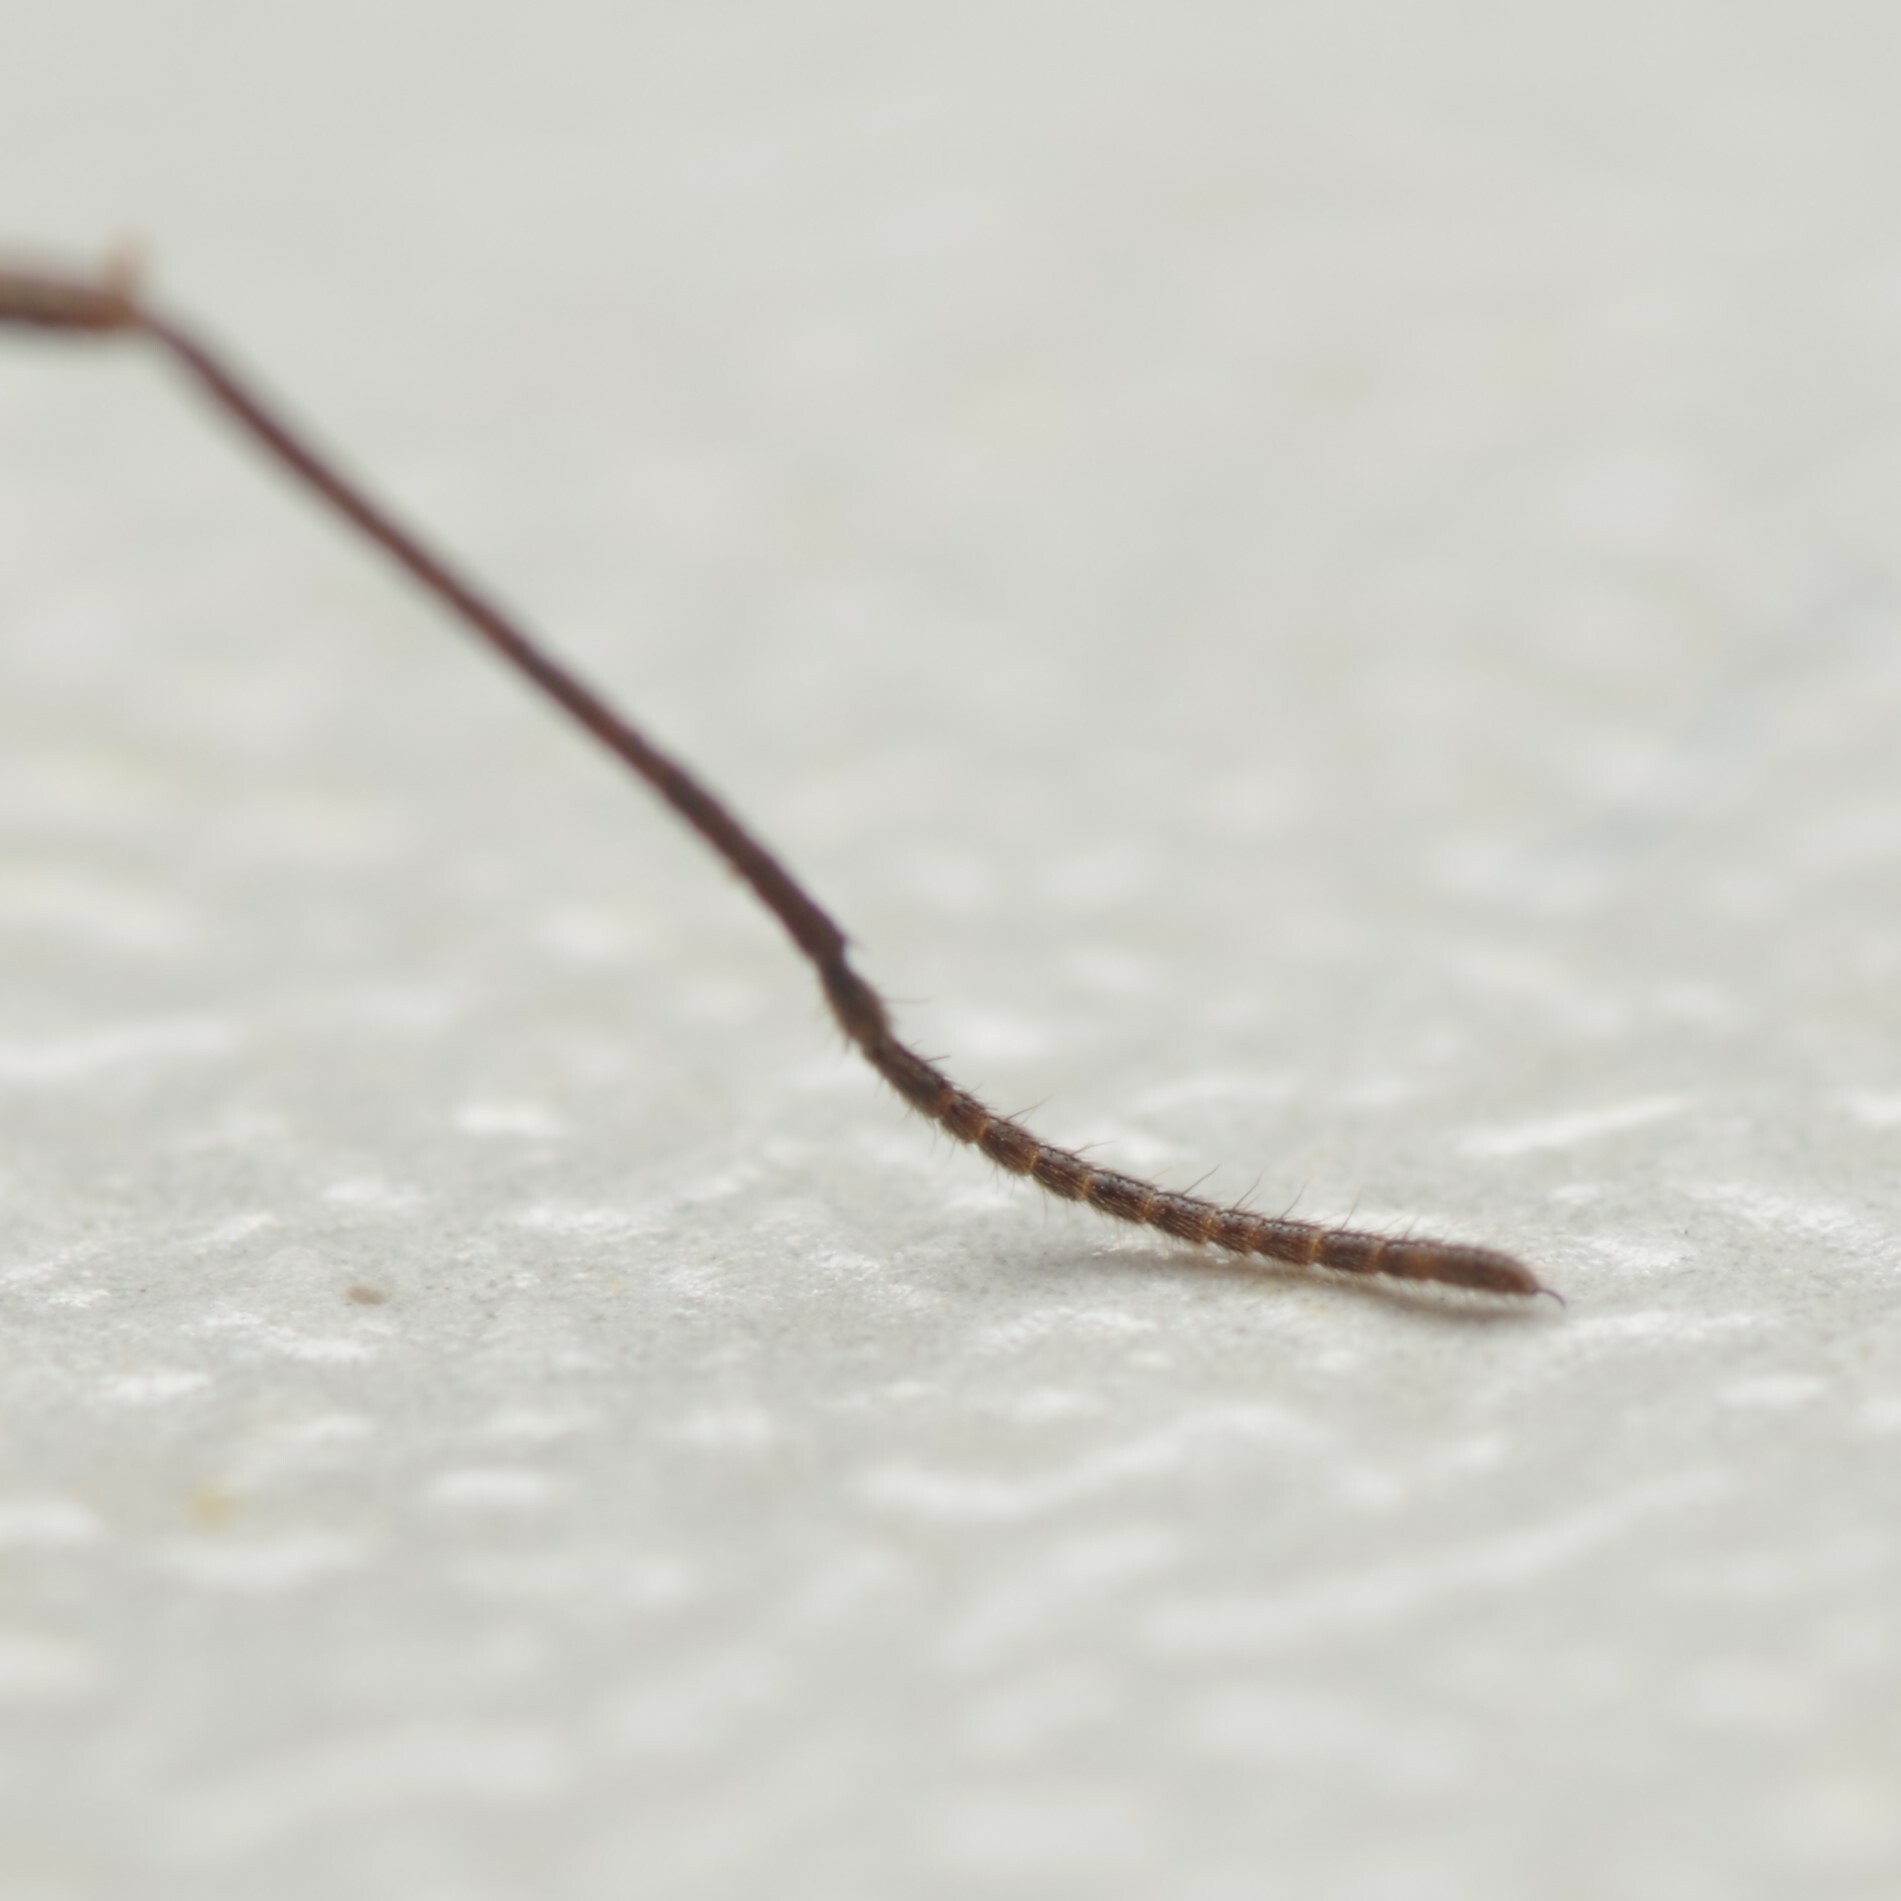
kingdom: Animalia
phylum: Arthropoda
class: Arachnida
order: Opiliones
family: Dicranolasmatidae
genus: Dicranolasma
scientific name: Dicranolasma soerensenii
